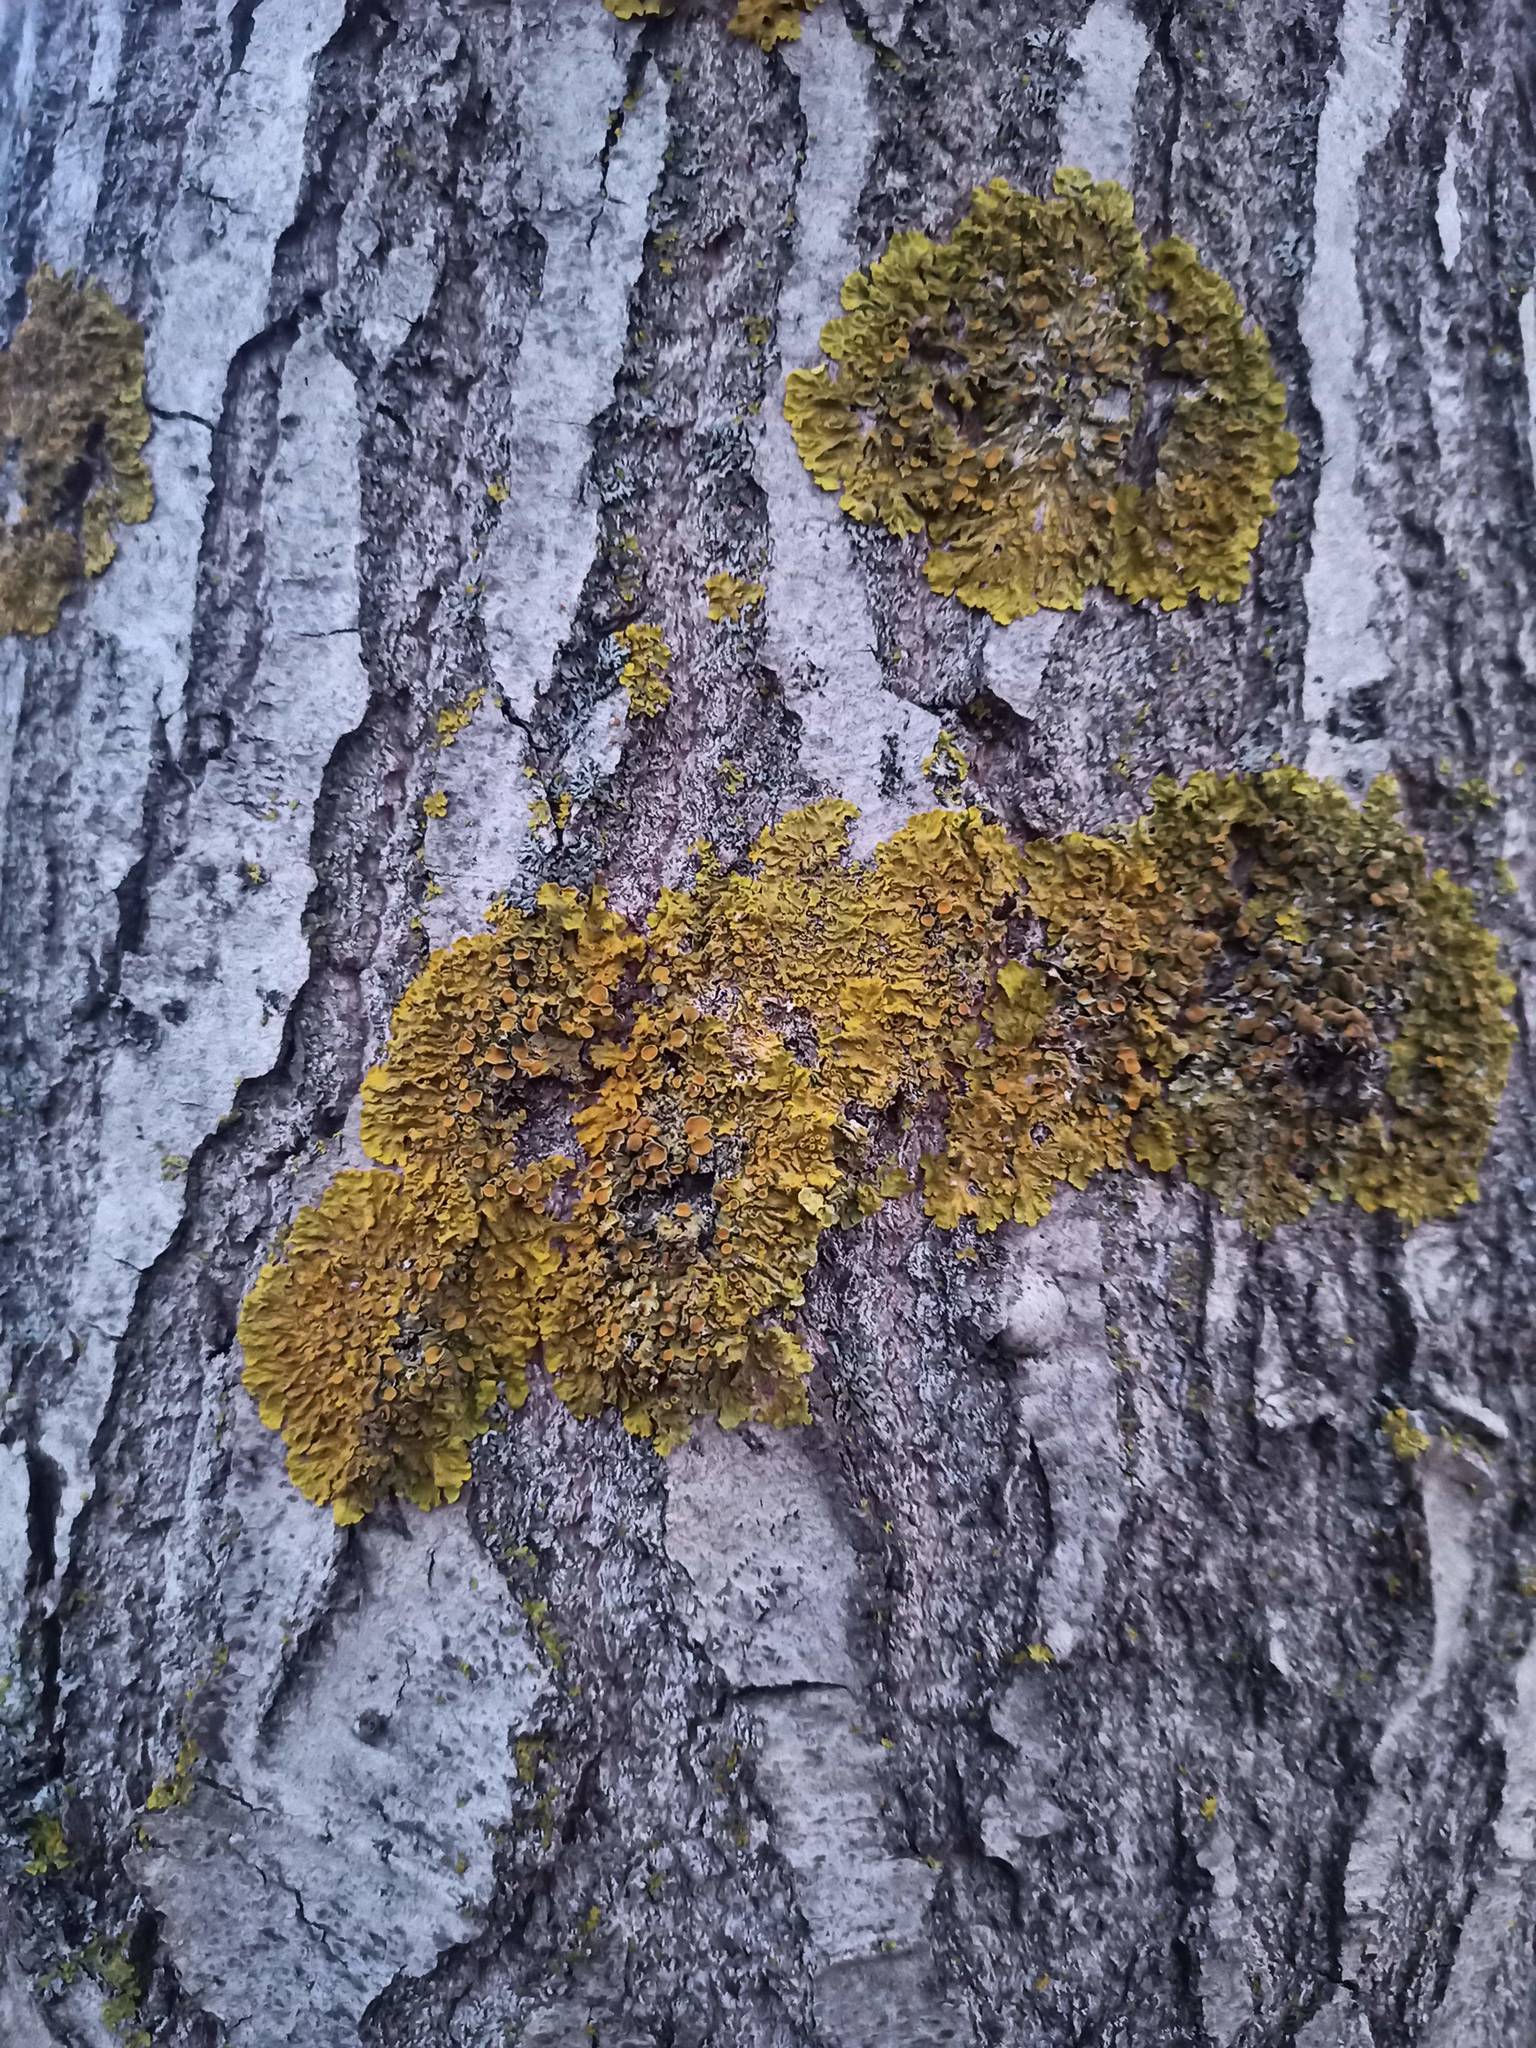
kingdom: Fungi
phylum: Ascomycota
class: Lecanoromycetes
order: Teloschistales
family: Teloschistaceae
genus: Xanthoria
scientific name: Xanthoria parietina
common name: Common orange lichen
